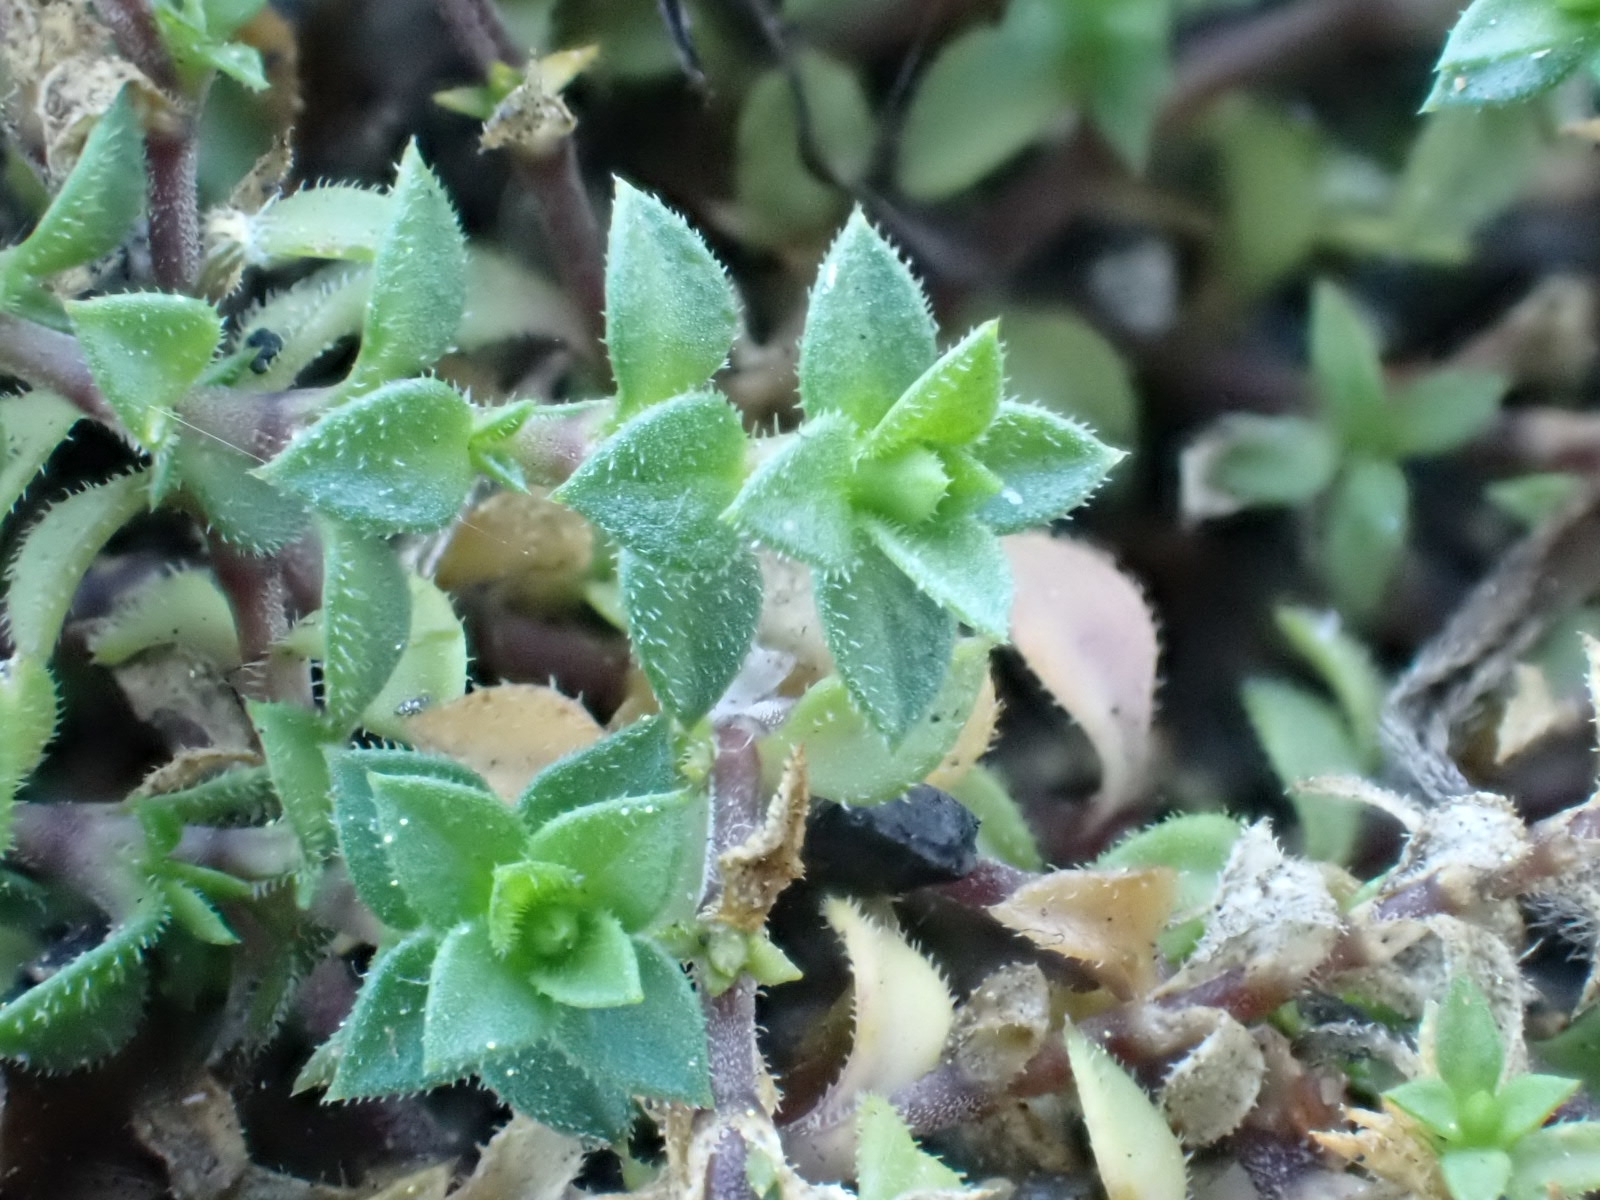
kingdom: Plantae
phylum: Tracheophyta
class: Magnoliopsida
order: Caryophyllales
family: Caryophyllaceae
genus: Arenaria
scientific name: Arenaria serpyllifolia
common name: Thyme-leaved sandwort
